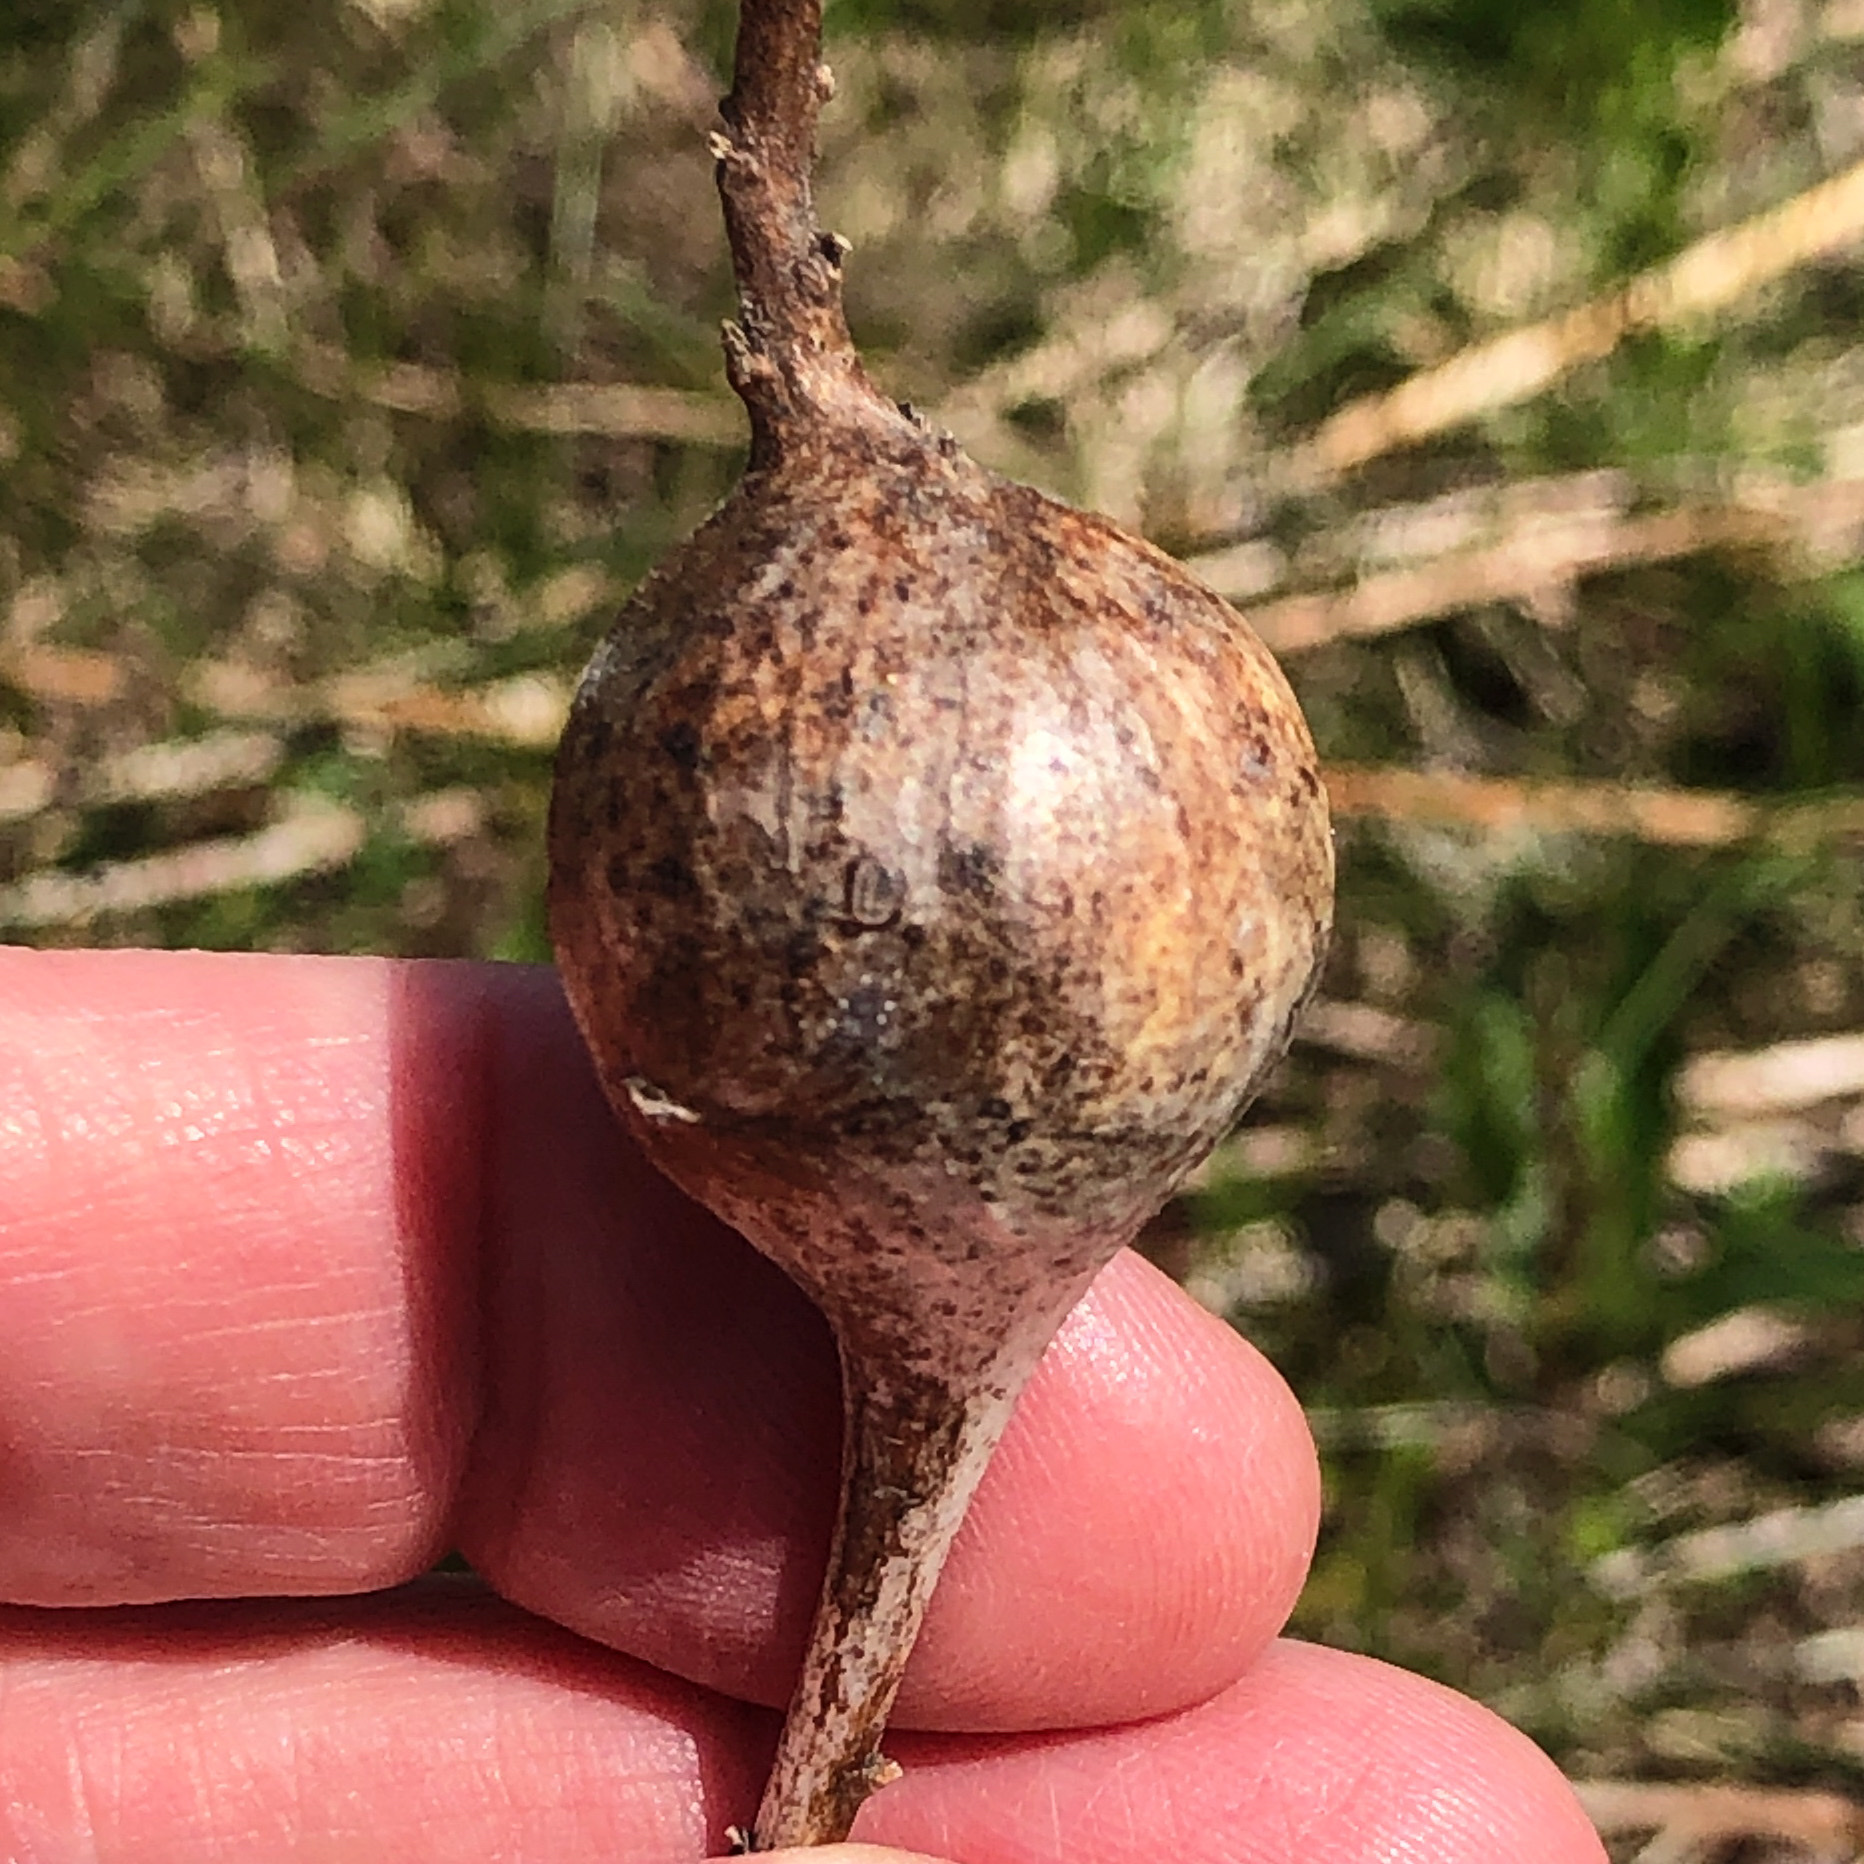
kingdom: Animalia
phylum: Arthropoda
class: Insecta
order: Diptera
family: Tephritidae
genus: Eurosta
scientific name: Eurosta solidaginis
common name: Goldenrod gall fly
